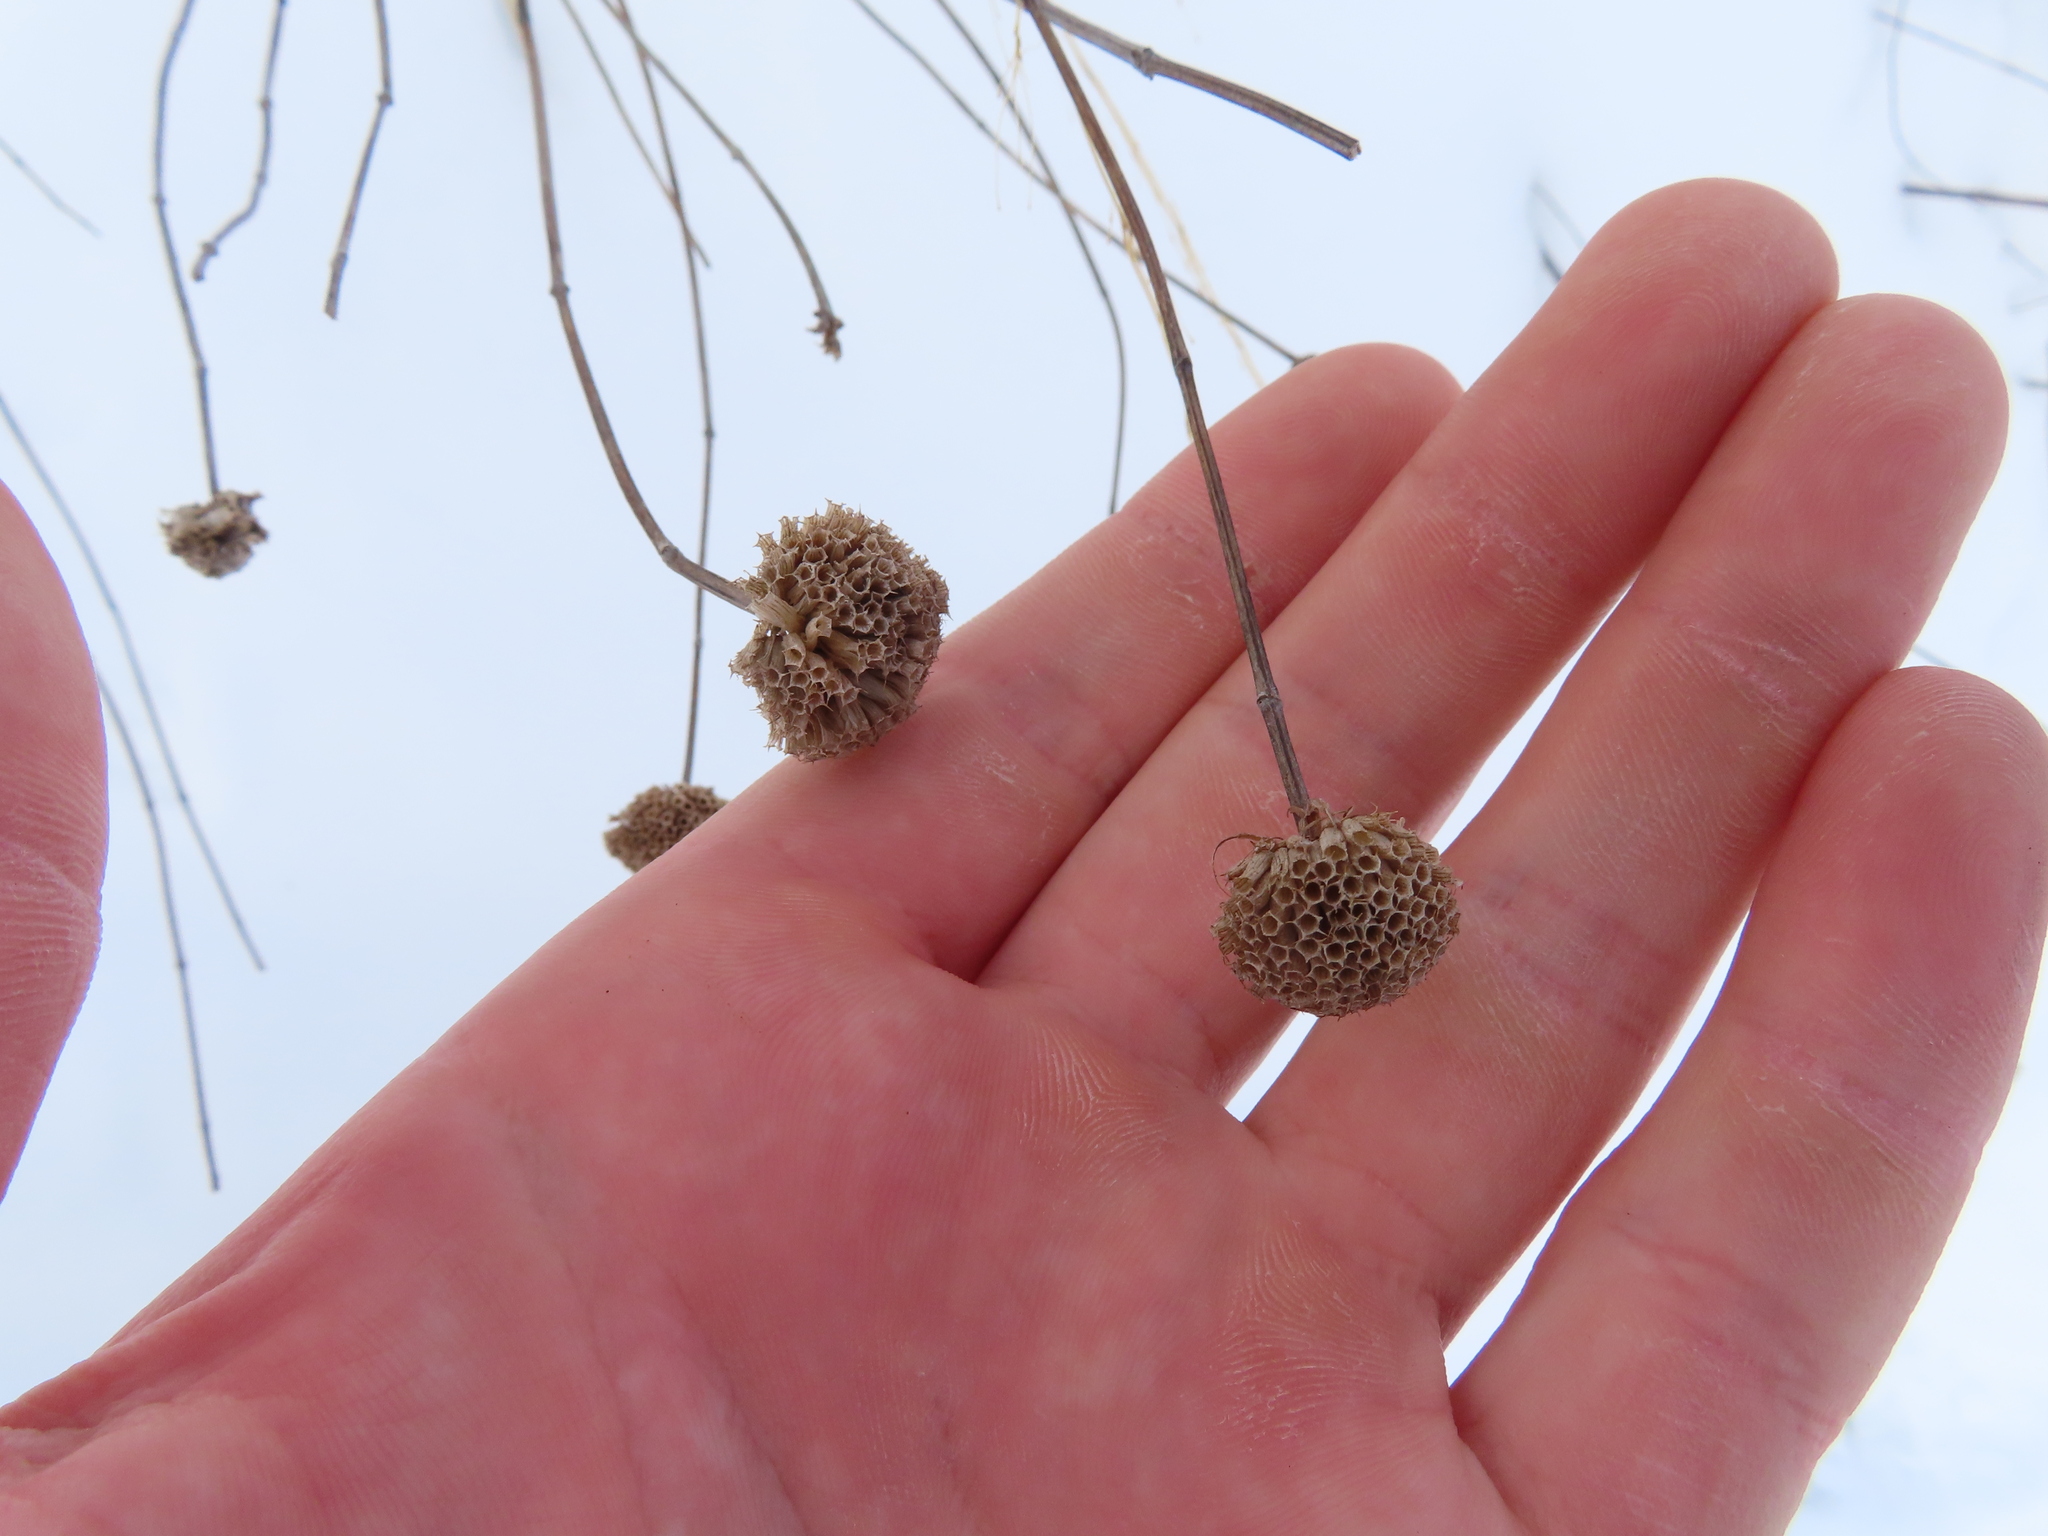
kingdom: Plantae
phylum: Tracheophyta
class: Magnoliopsida
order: Lamiales
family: Lamiaceae
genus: Monarda
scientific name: Monarda fistulosa
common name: Purple beebalm
